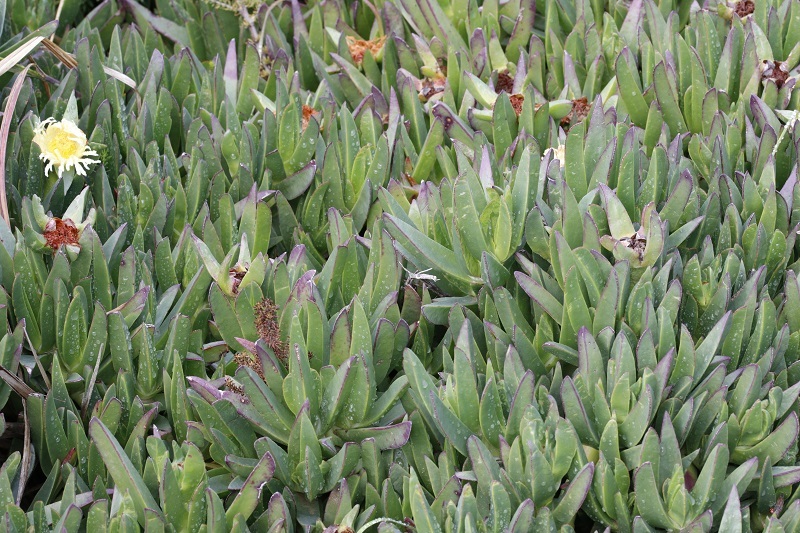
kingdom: Plantae
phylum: Tracheophyta
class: Magnoliopsida
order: Caryophyllales
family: Aizoaceae
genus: Carpobrotus
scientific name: Carpobrotus edulis
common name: Hottentot-fig
